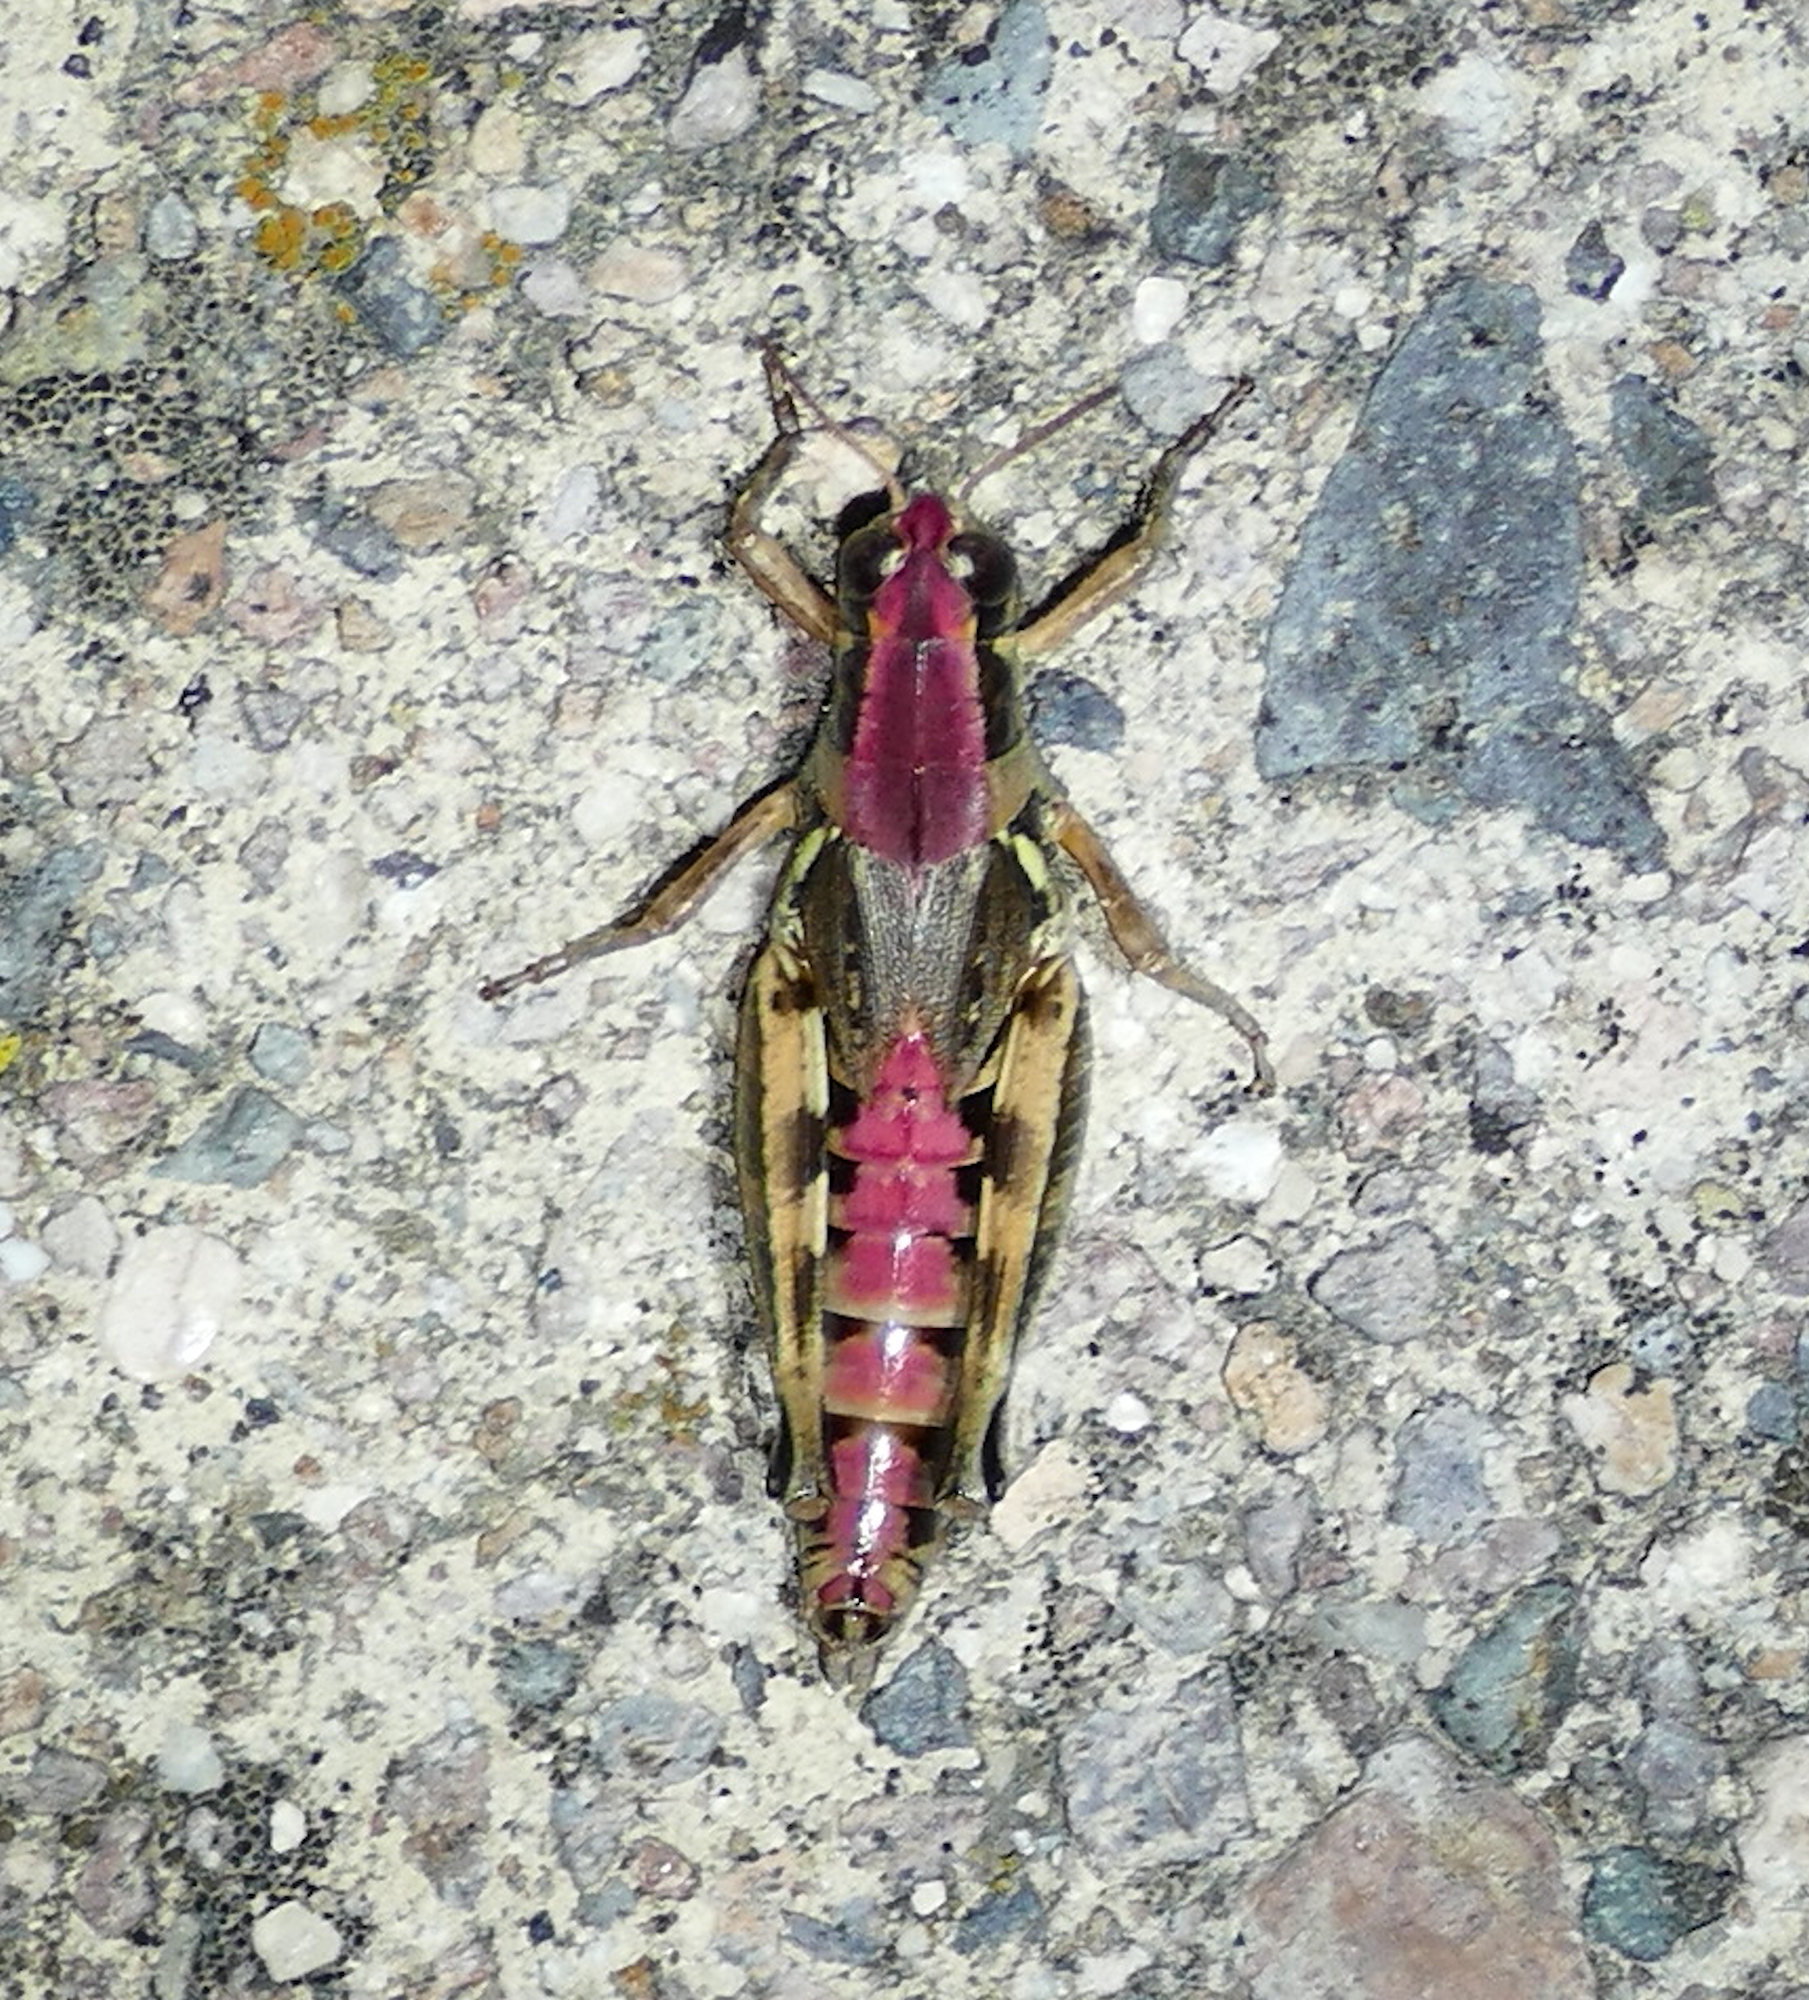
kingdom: Animalia
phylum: Arthropoda
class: Insecta
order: Orthoptera
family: Acrididae
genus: Melanoplus
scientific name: Melanoplus lakinus
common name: Lakin grasshopper
